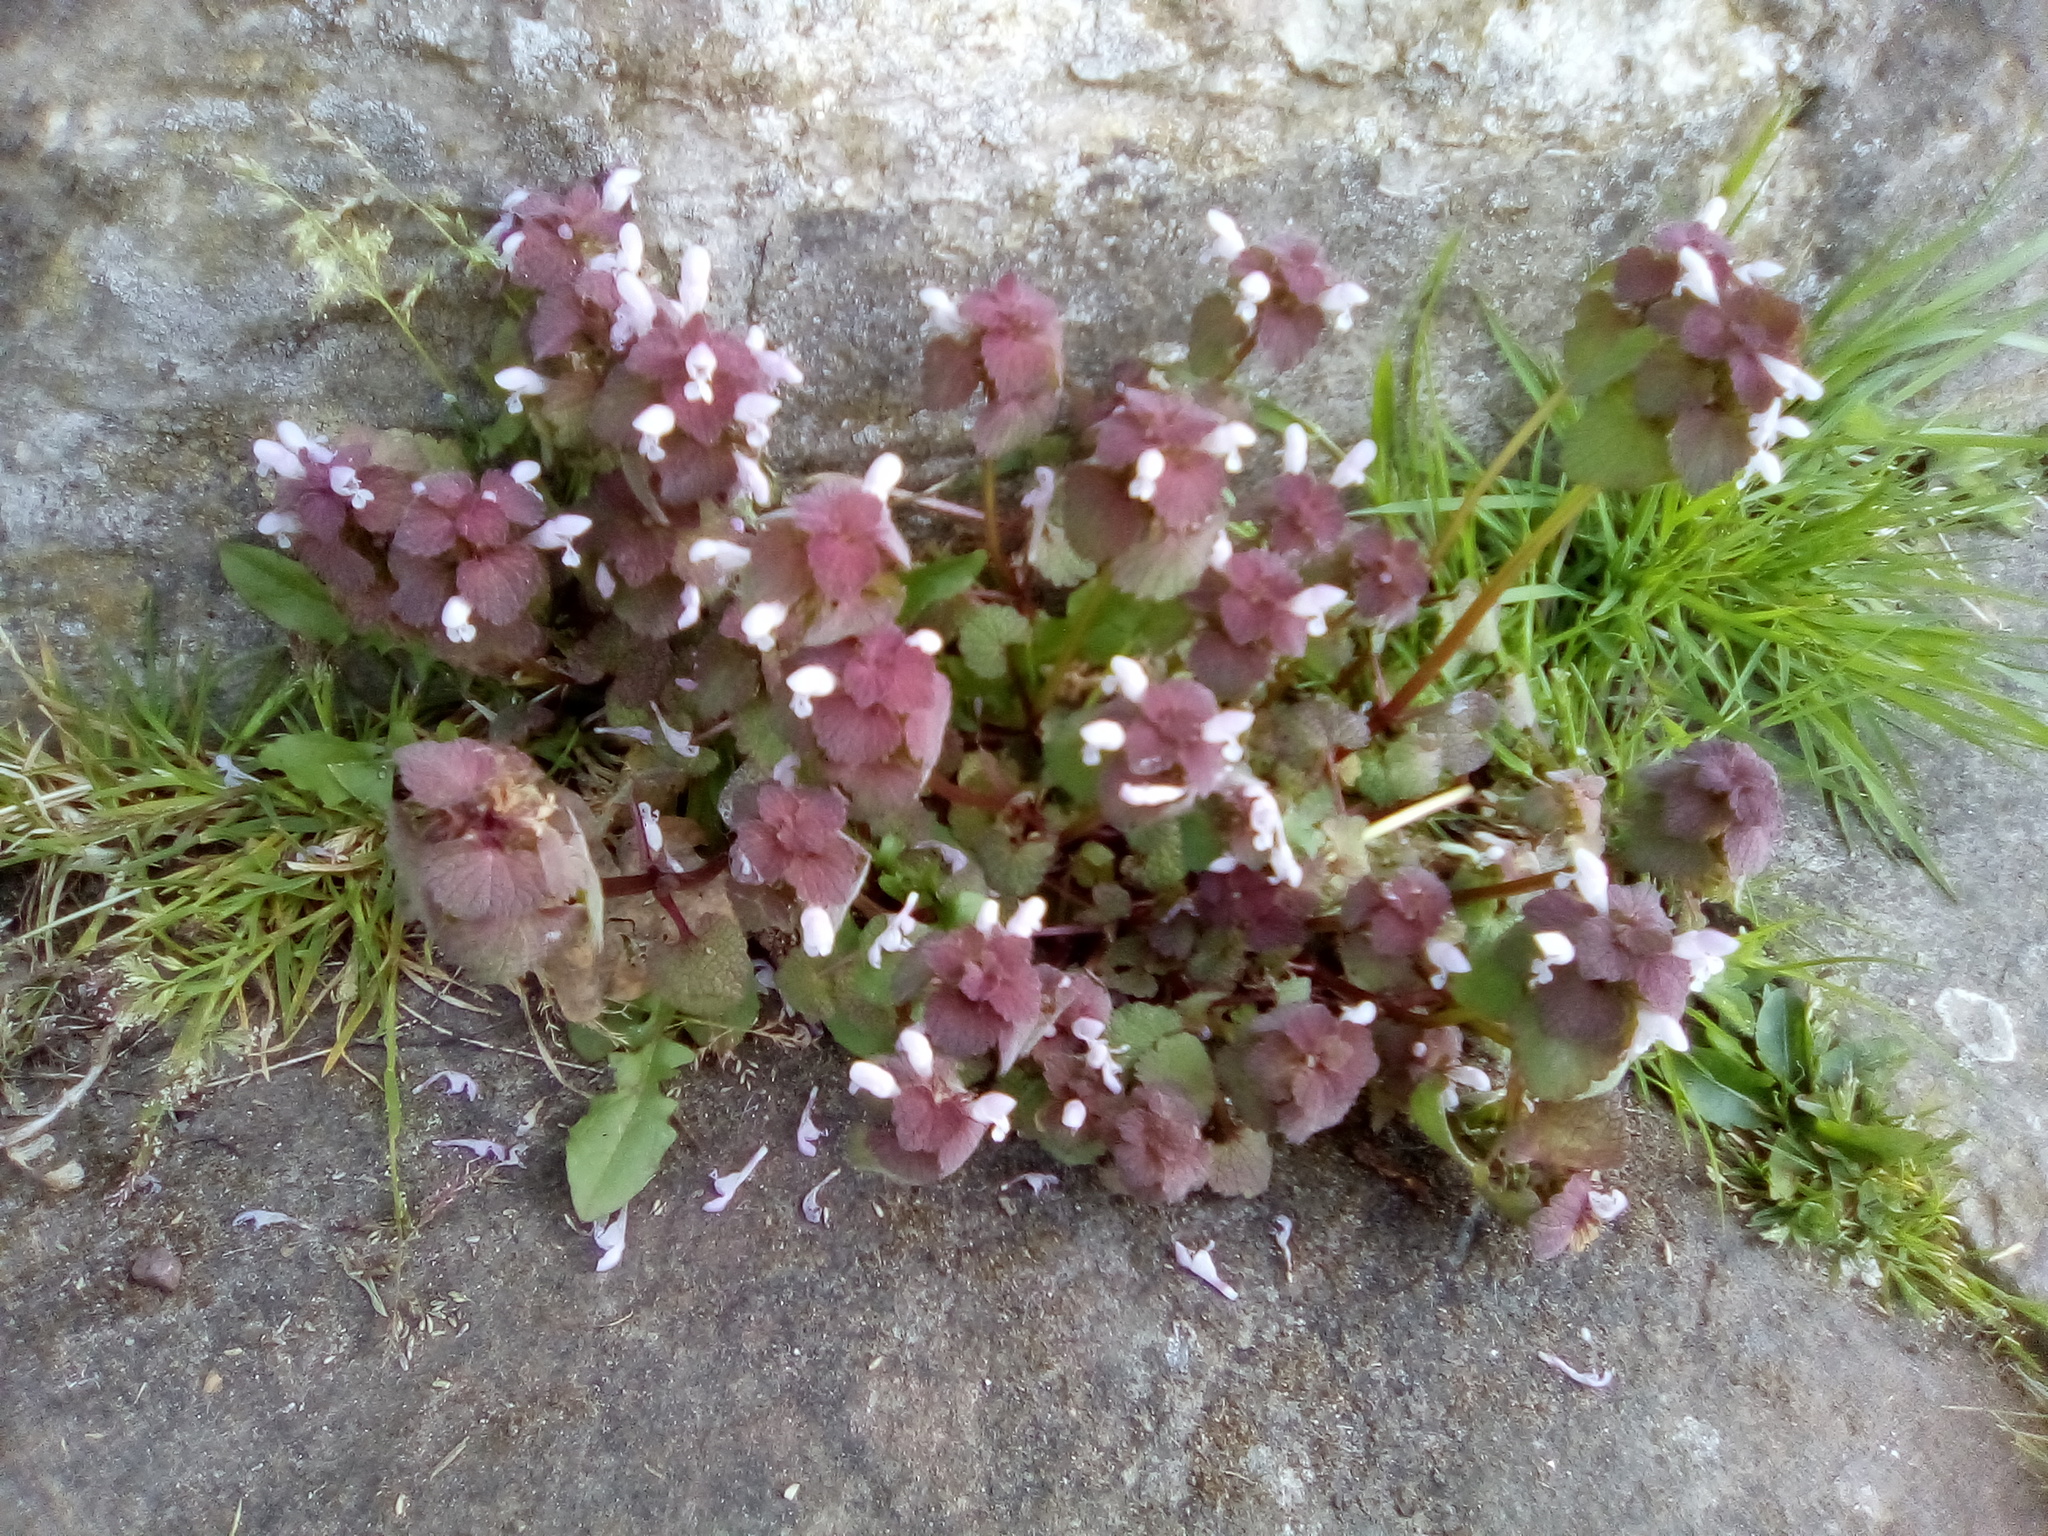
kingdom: Plantae
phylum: Tracheophyta
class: Magnoliopsida
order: Lamiales
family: Lamiaceae
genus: Lamium
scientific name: Lamium purpureum
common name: Red dead-nettle
